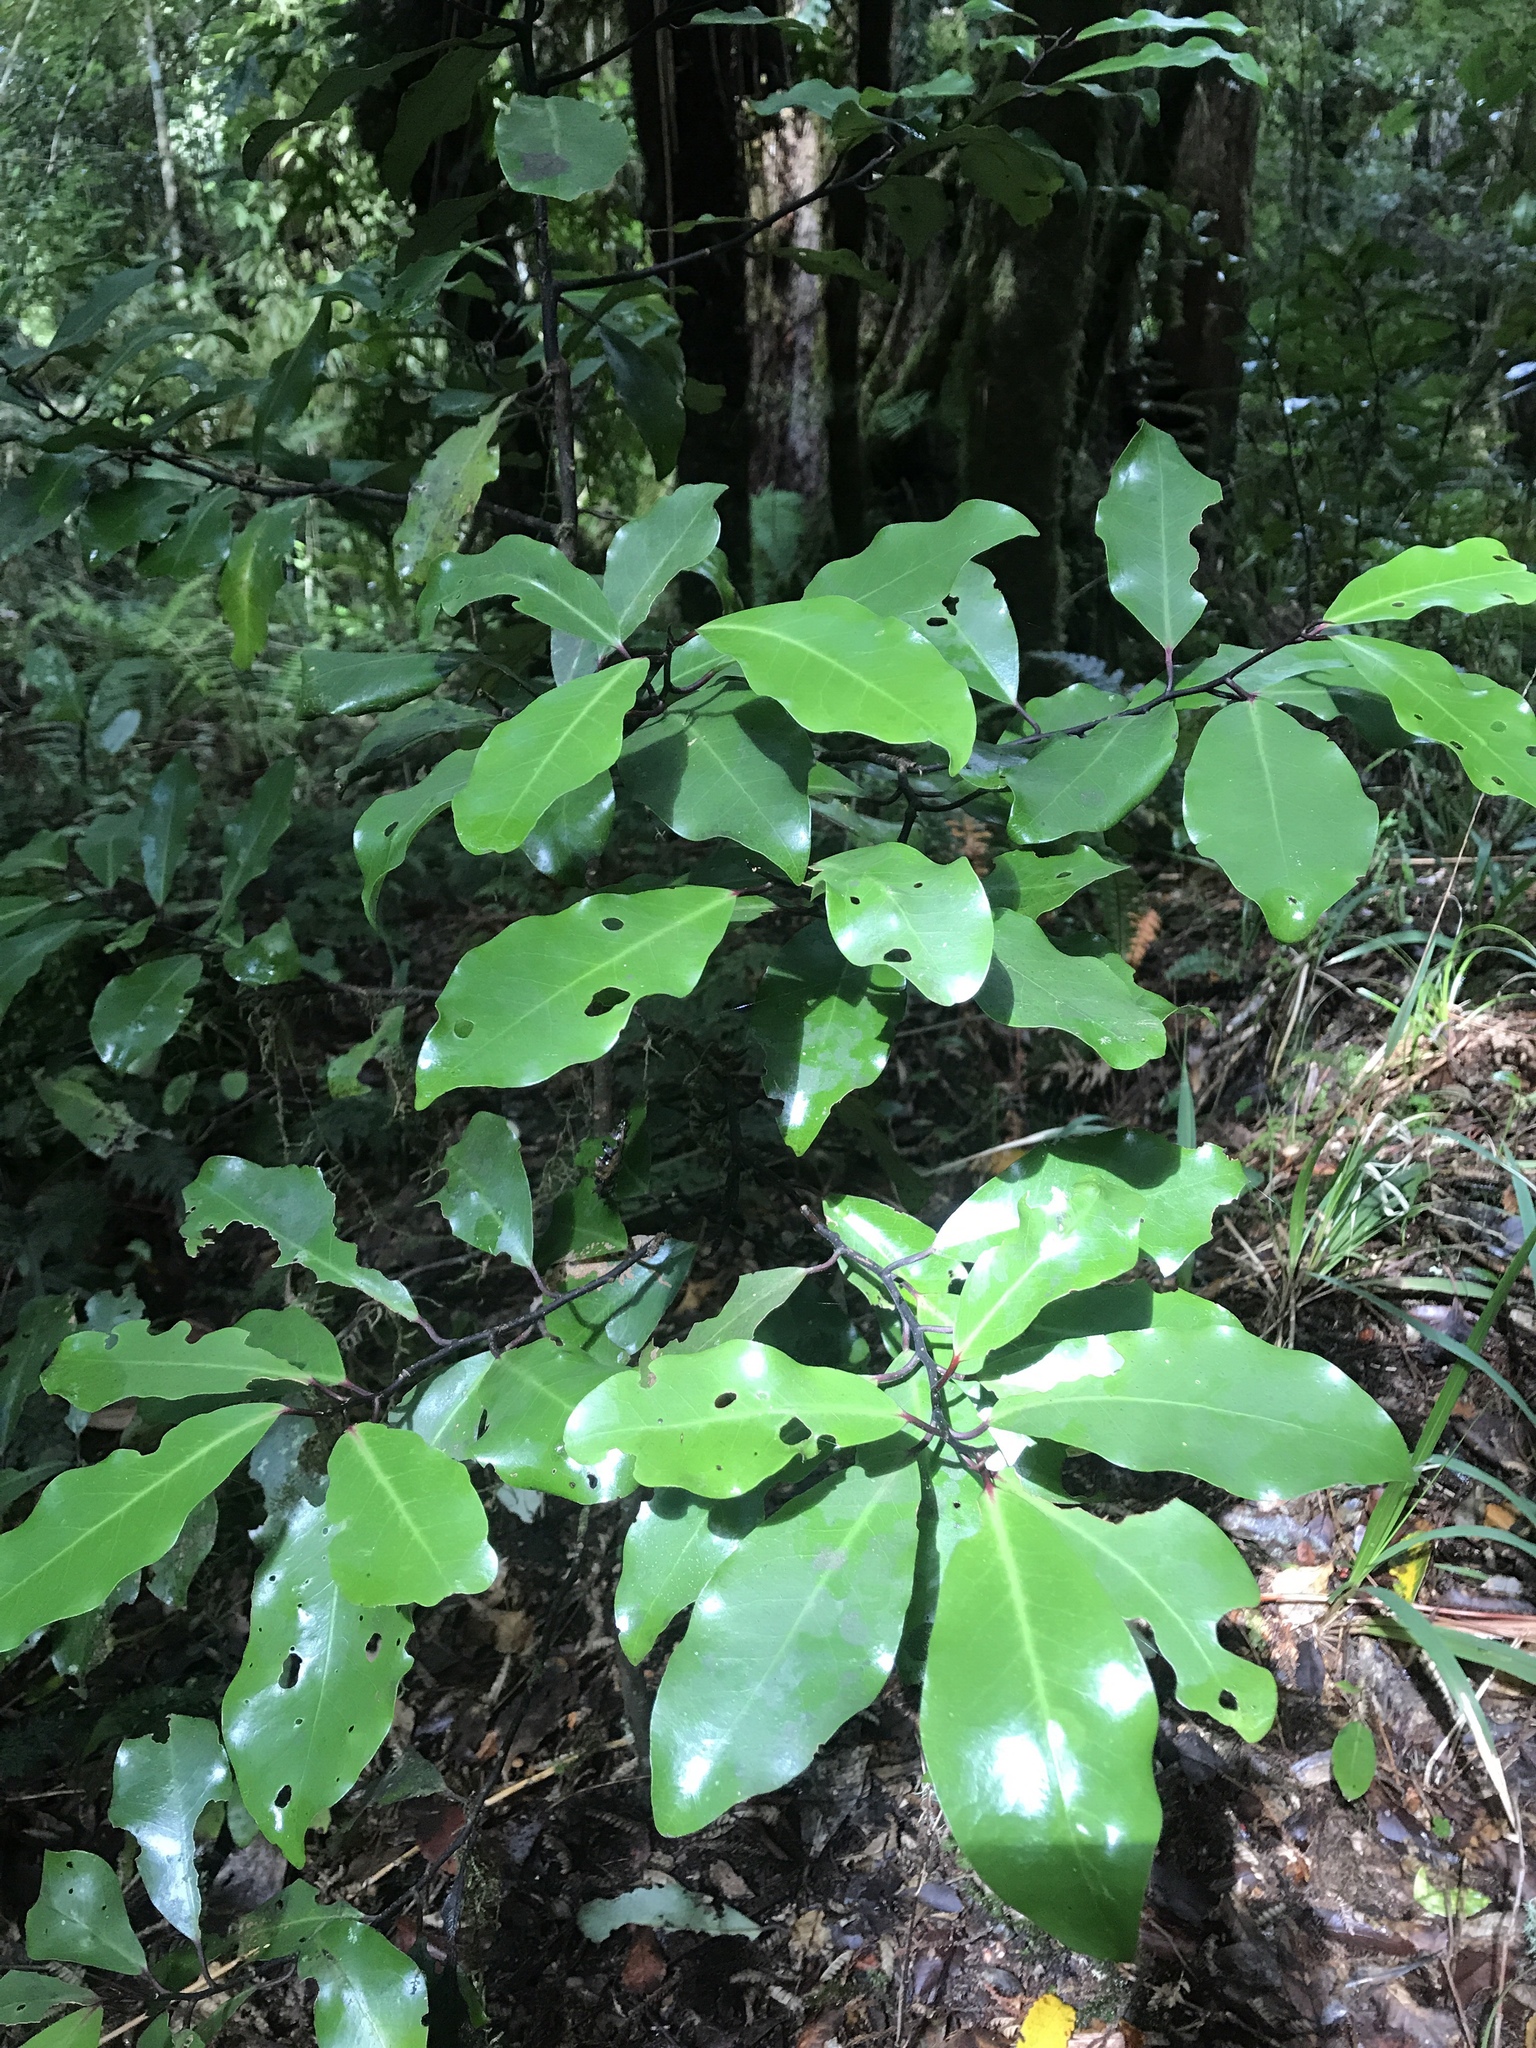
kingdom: Plantae
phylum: Tracheophyta
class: Magnoliopsida
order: Canellales
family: Winteraceae
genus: Pseudowintera
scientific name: Pseudowintera axillaris
